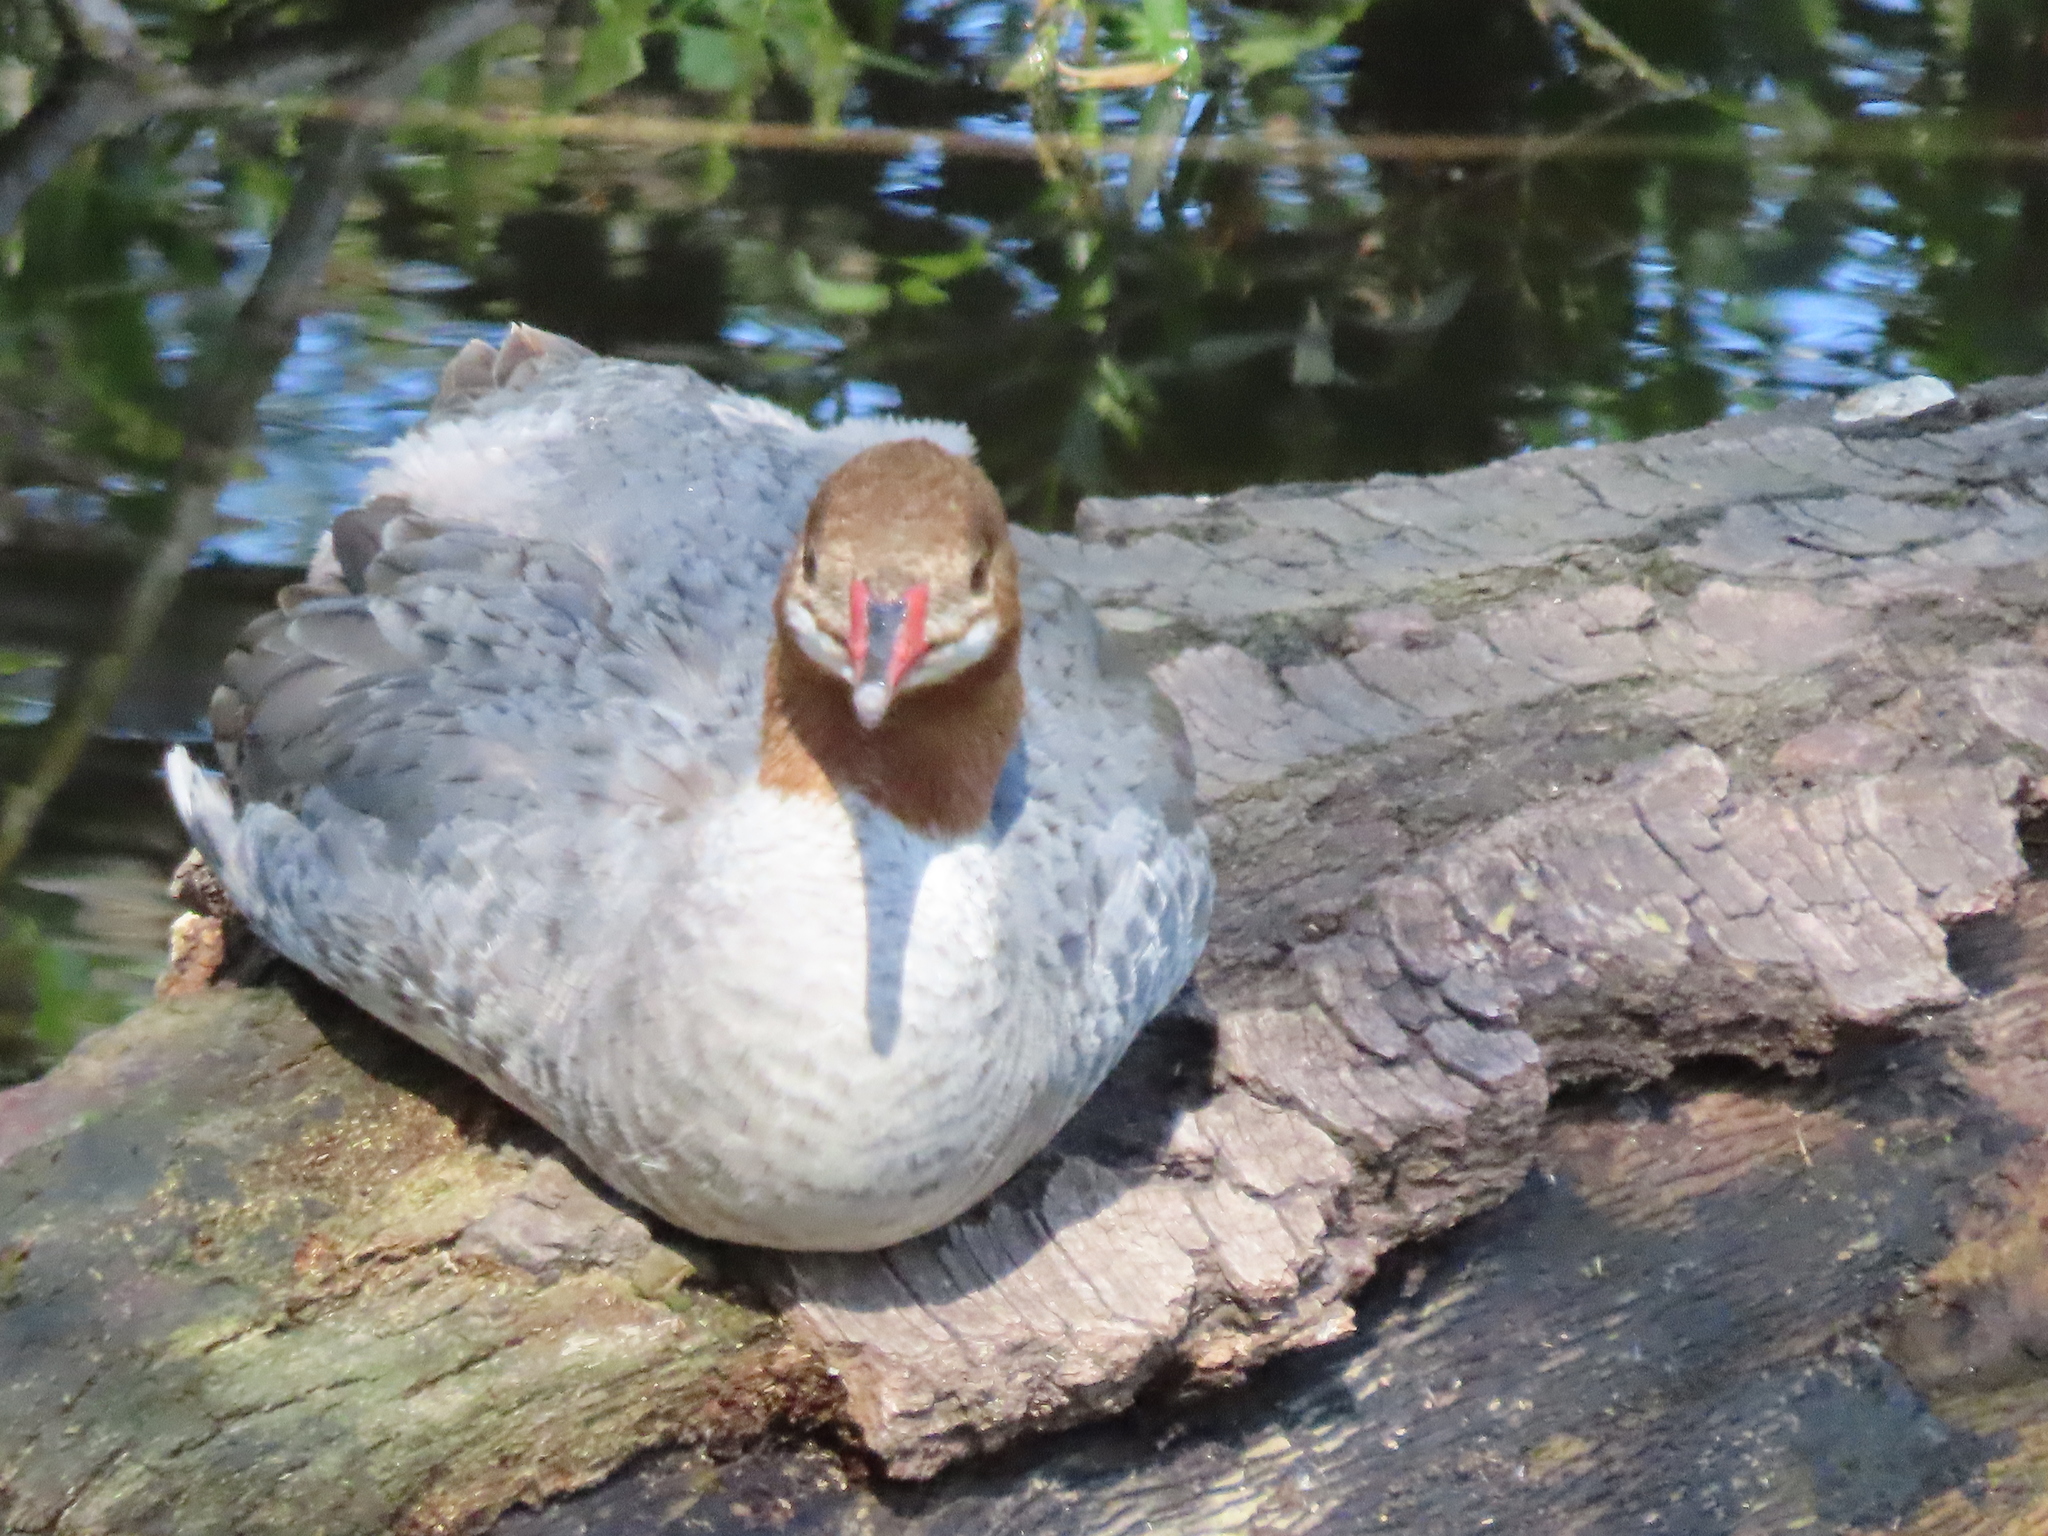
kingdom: Animalia
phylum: Chordata
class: Aves
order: Anseriformes
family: Anatidae
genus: Mergus
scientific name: Mergus merganser
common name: Common merganser
